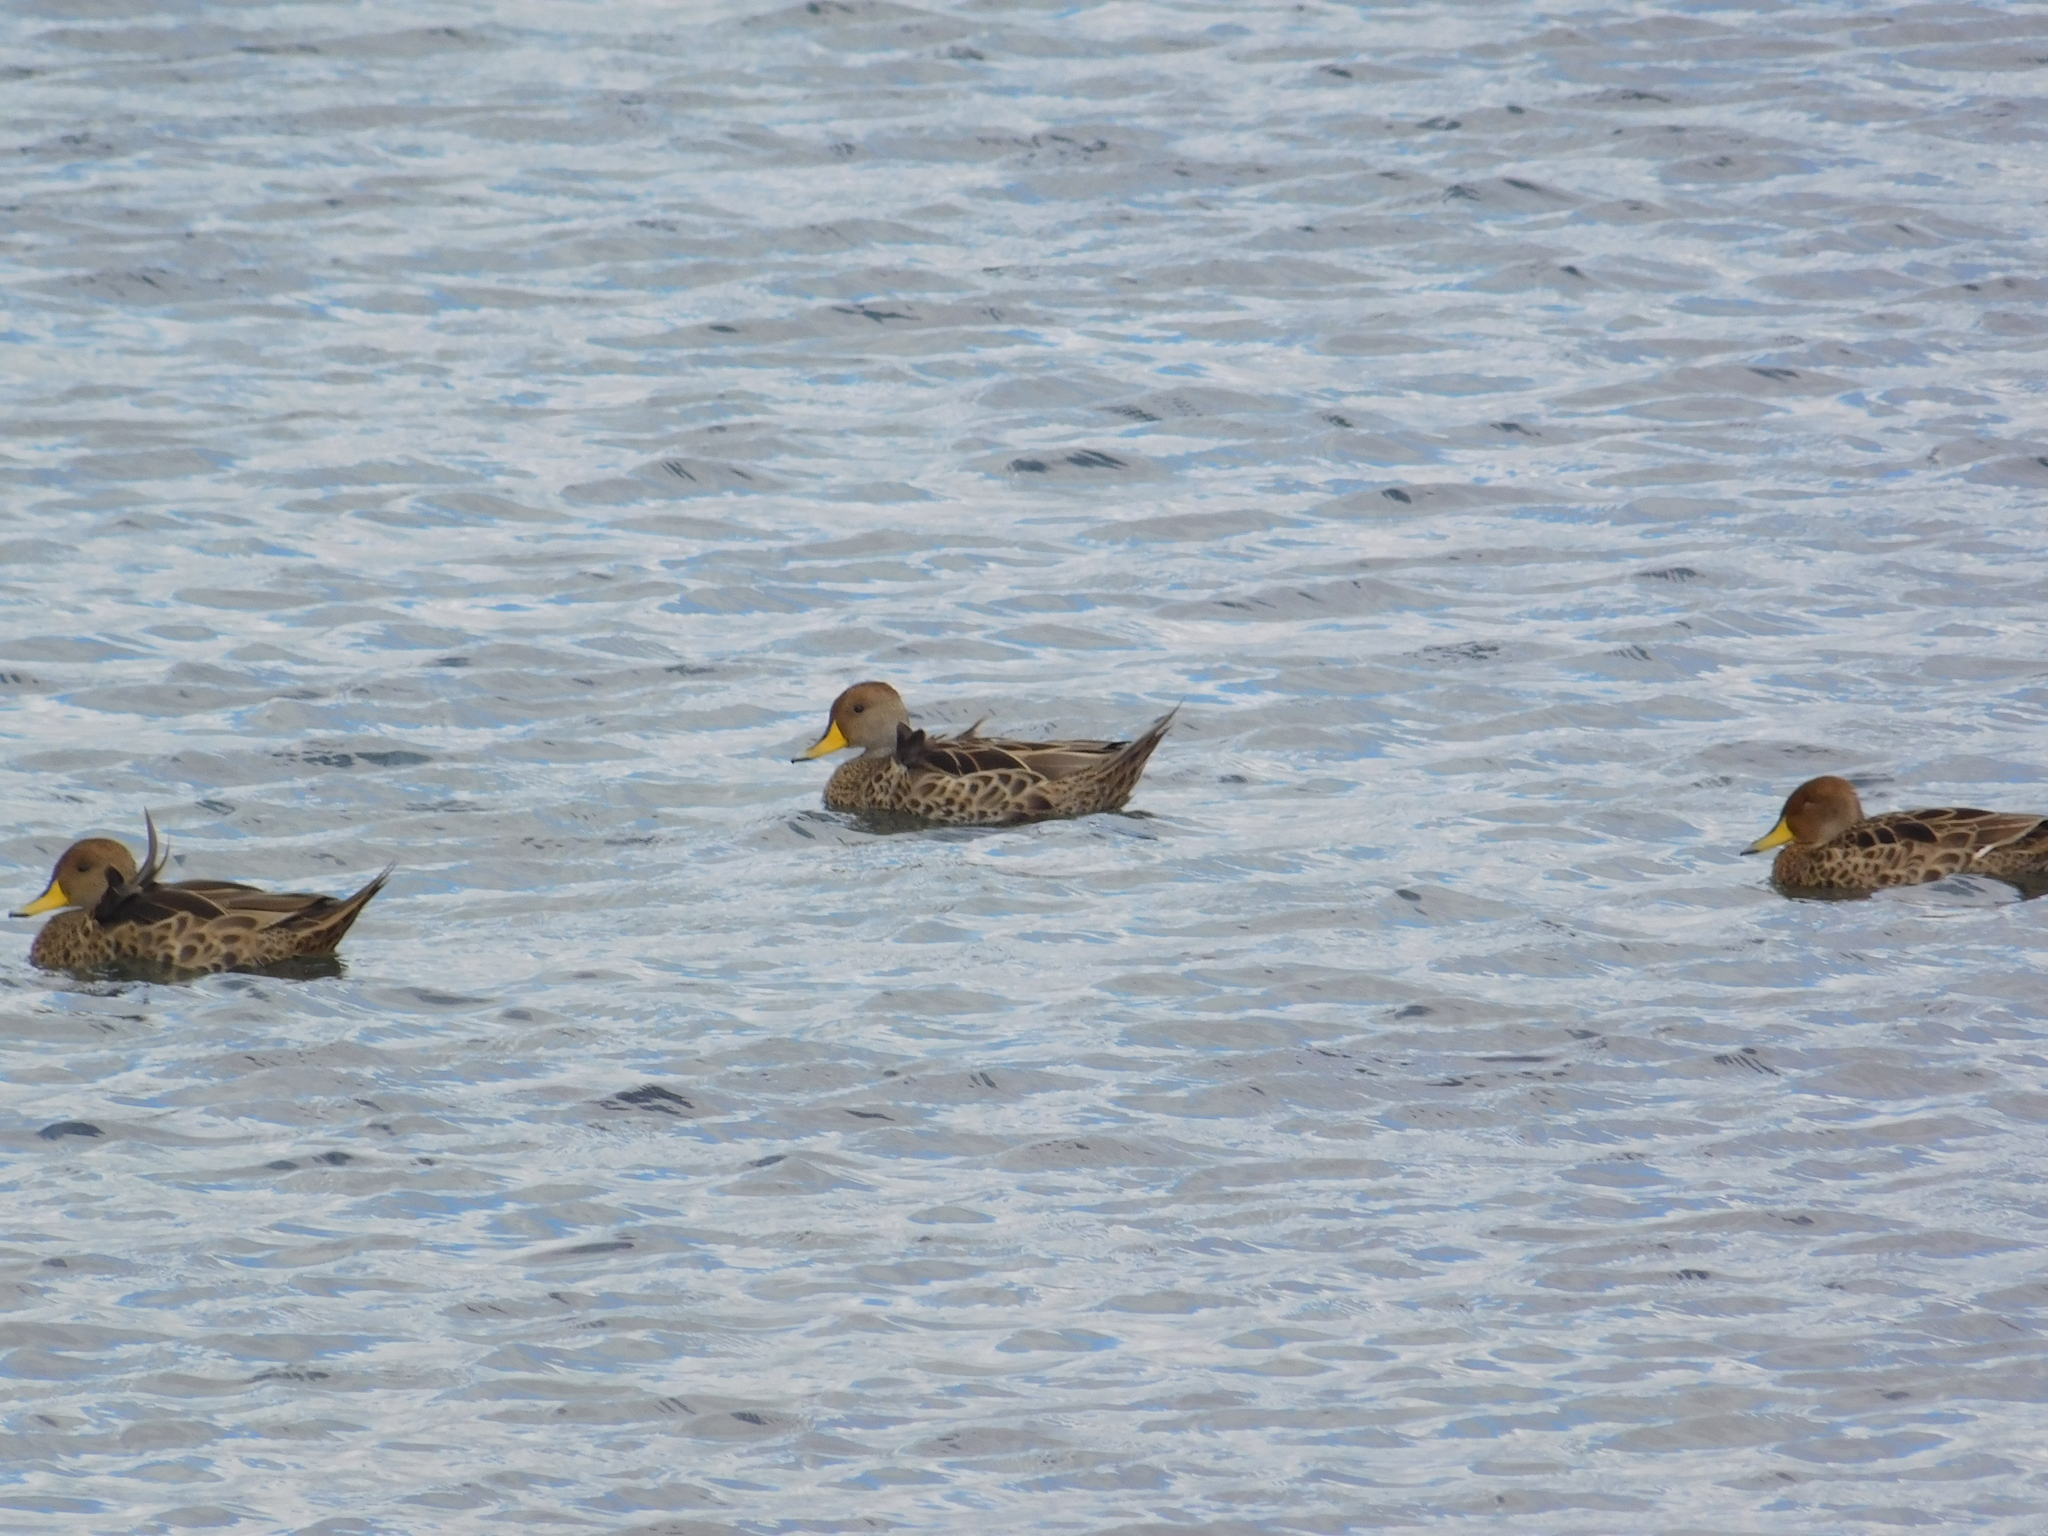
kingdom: Animalia
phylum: Chordata
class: Aves
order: Anseriformes
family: Anatidae
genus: Anas
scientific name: Anas georgica
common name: Yellow-billed pintail
